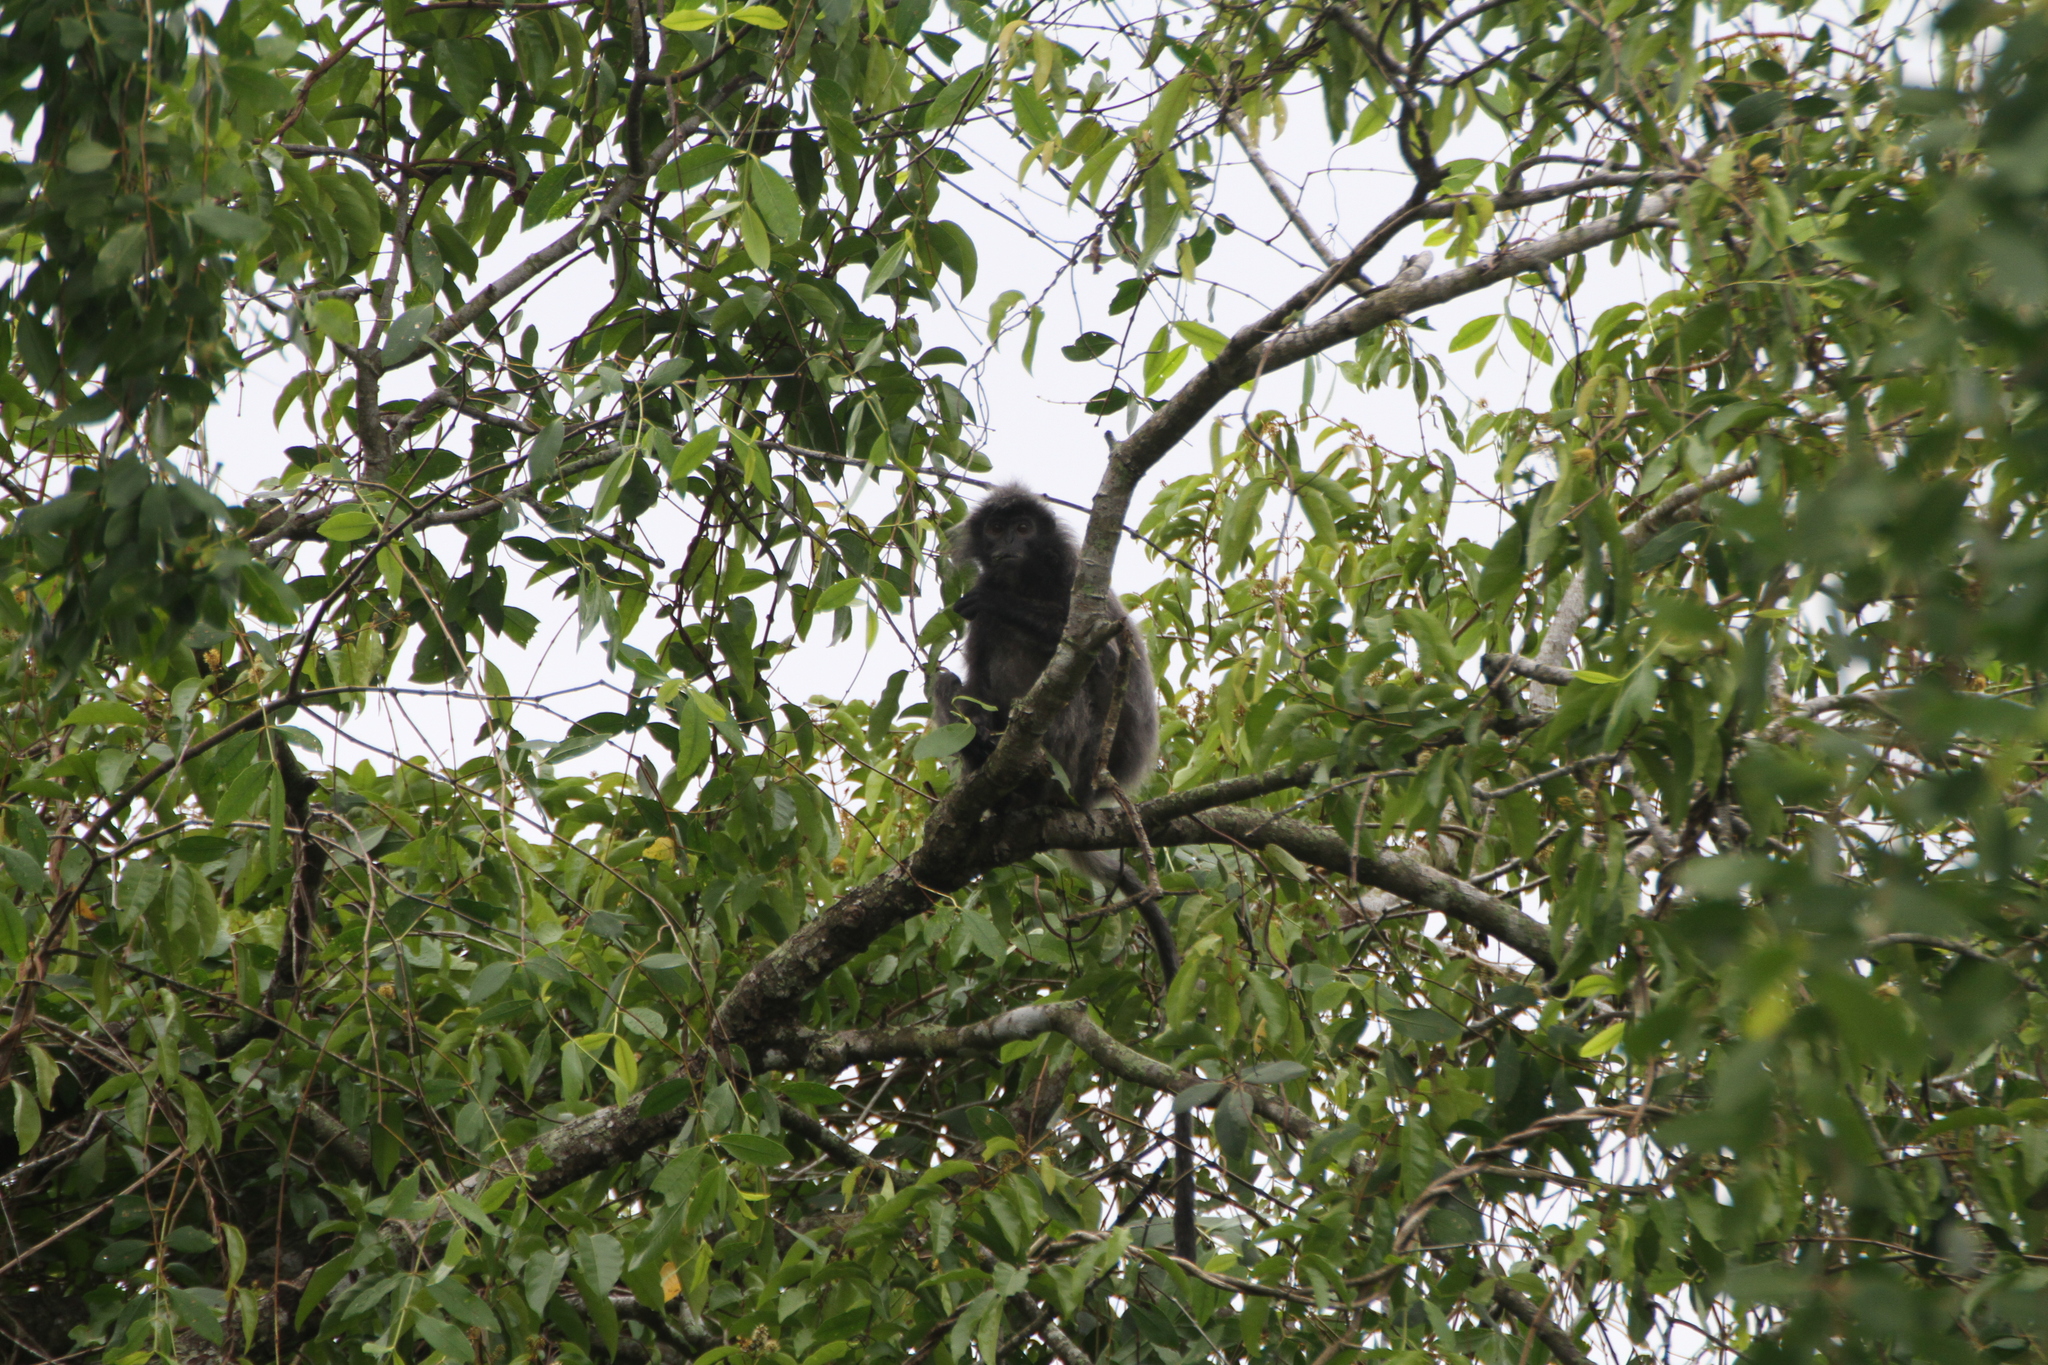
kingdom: Animalia
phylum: Chordata
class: Mammalia
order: Primates
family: Cercopithecidae
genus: Trachypithecus
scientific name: Trachypithecus cristatus
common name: Silvery lutung
